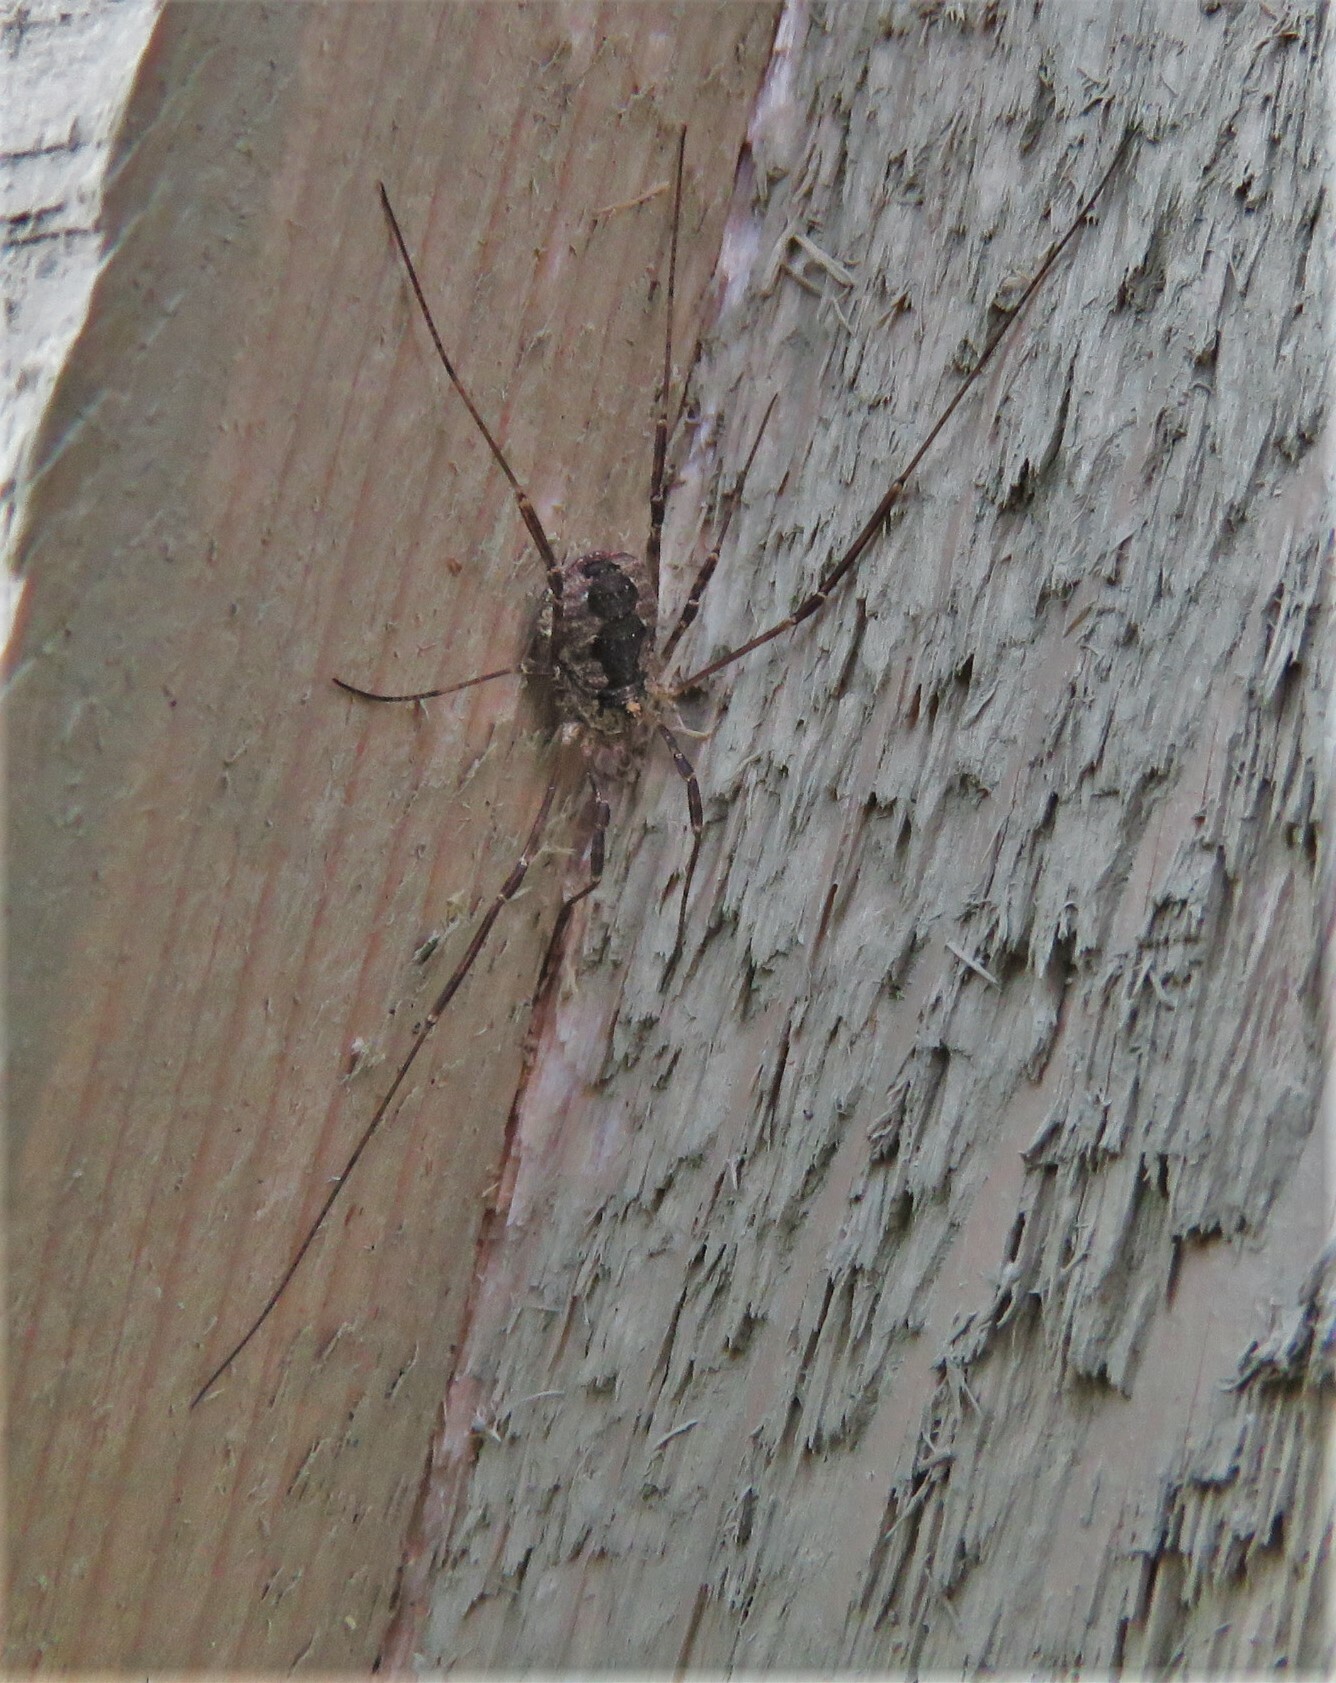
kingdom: Animalia
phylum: Arthropoda
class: Arachnida
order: Opiliones
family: Phalangiidae
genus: Odiellus
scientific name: Odiellus pictus
